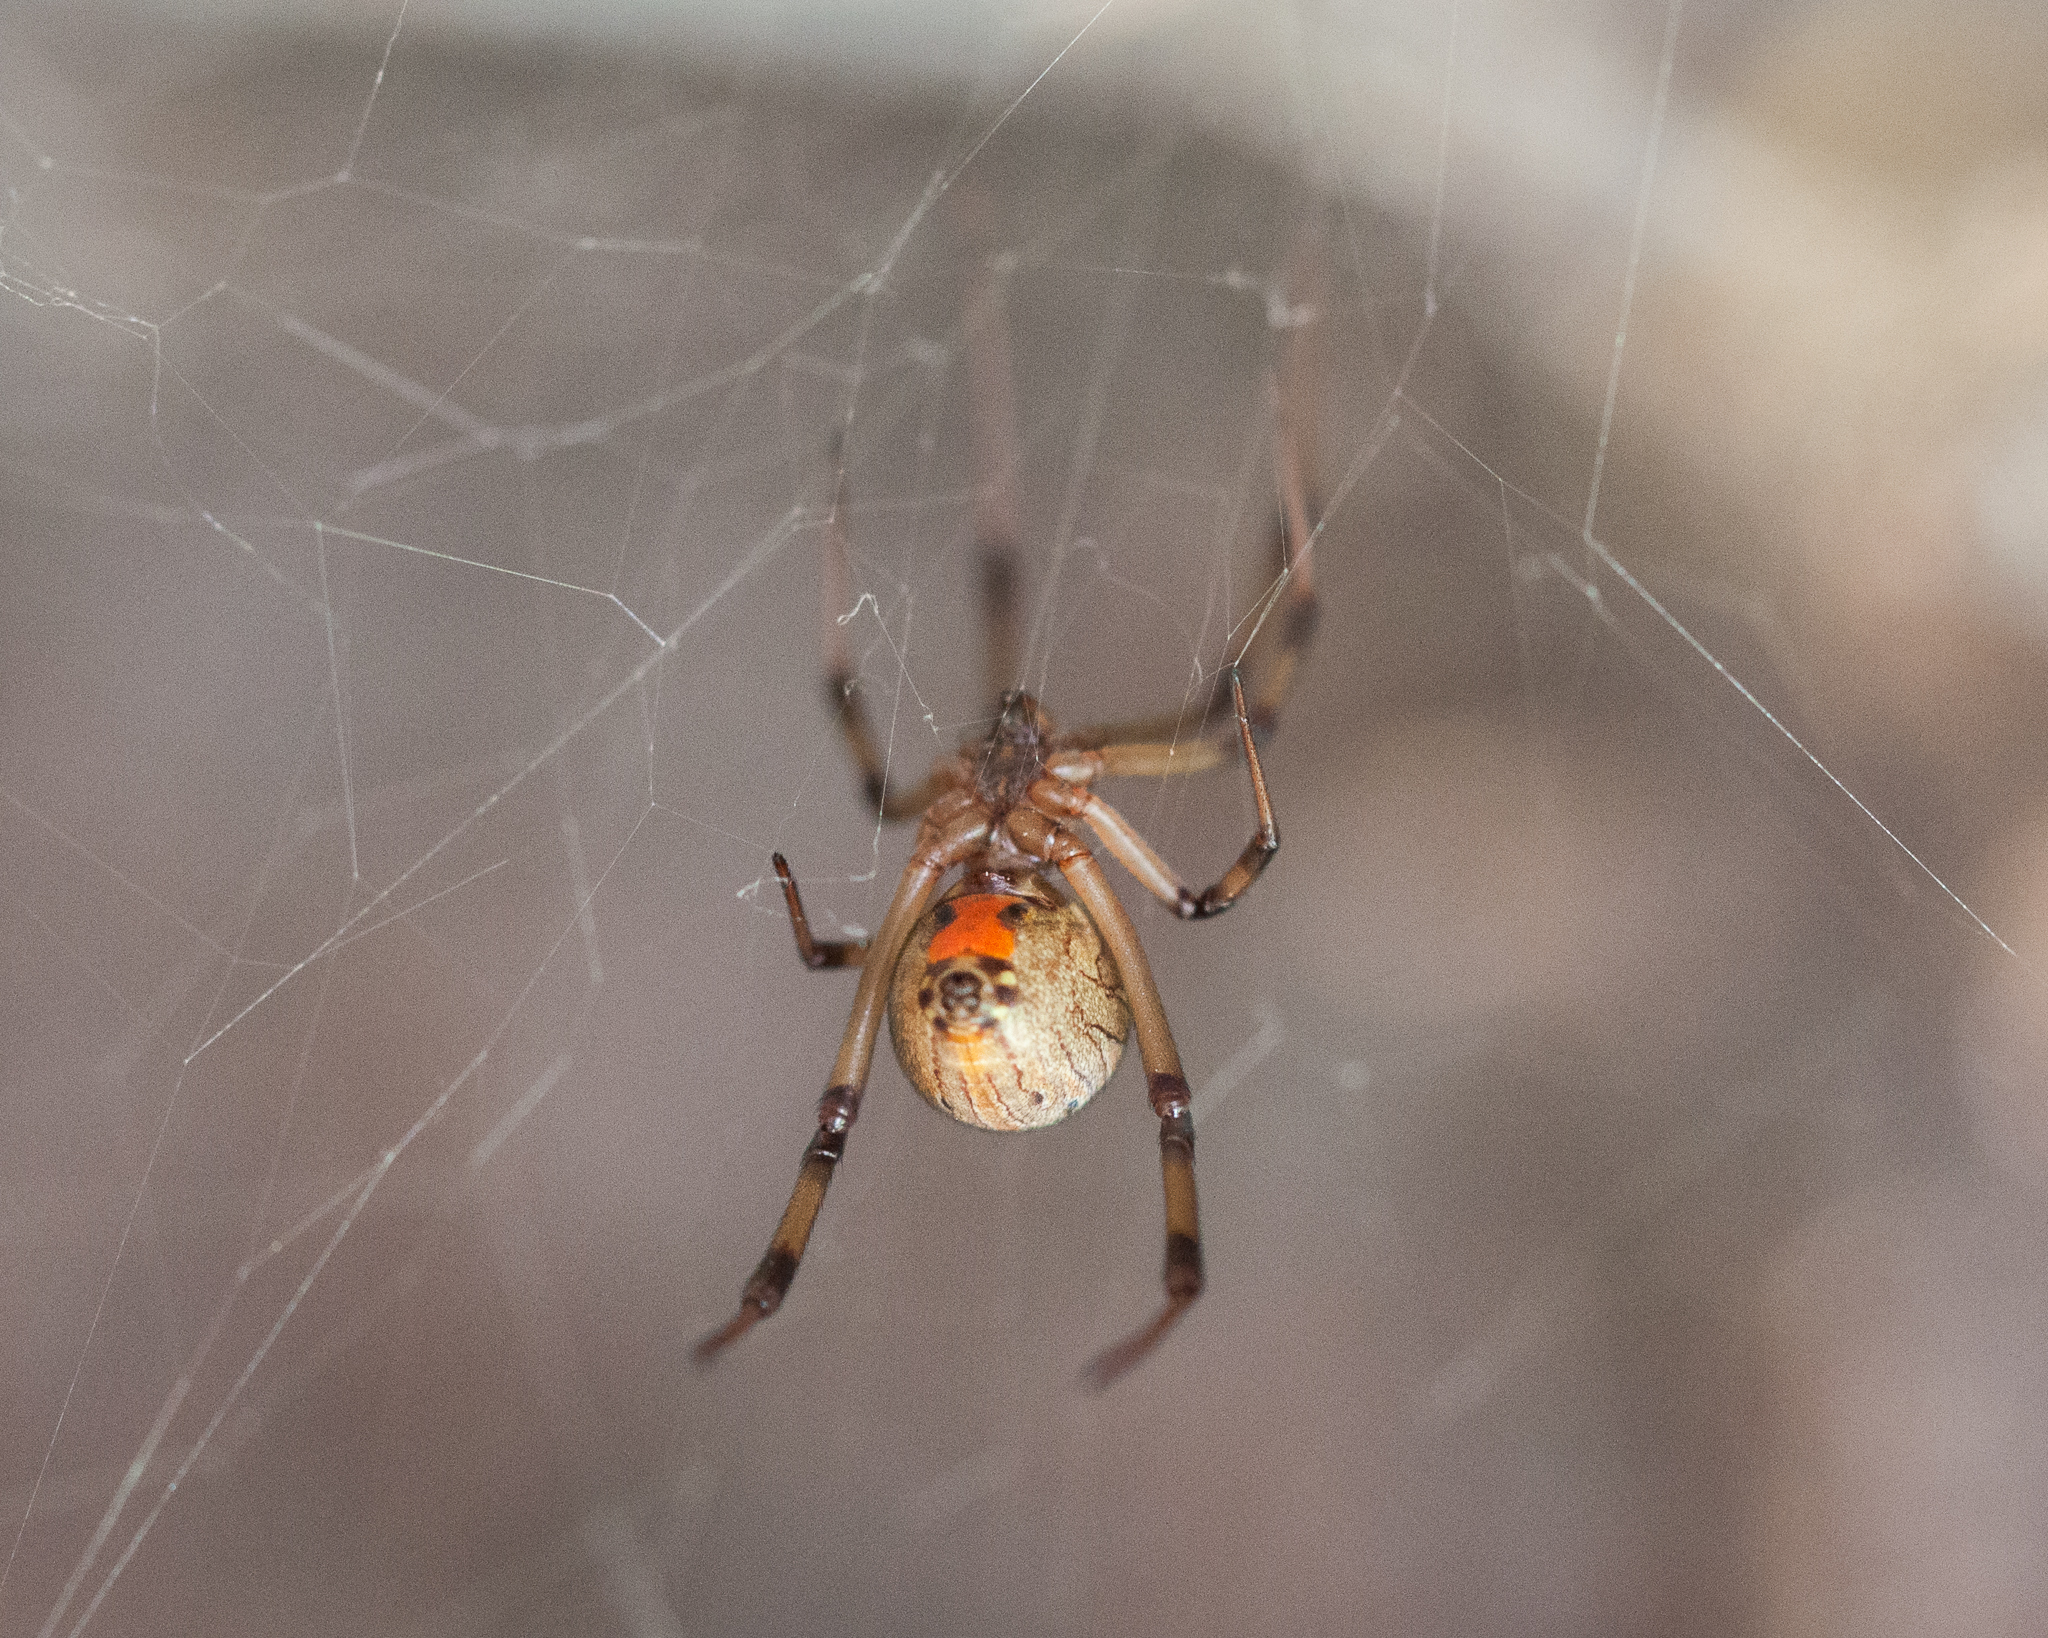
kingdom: Animalia
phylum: Arthropoda
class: Arachnida
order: Araneae
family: Theridiidae
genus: Latrodectus
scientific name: Latrodectus geometricus
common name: Brown widow spider
